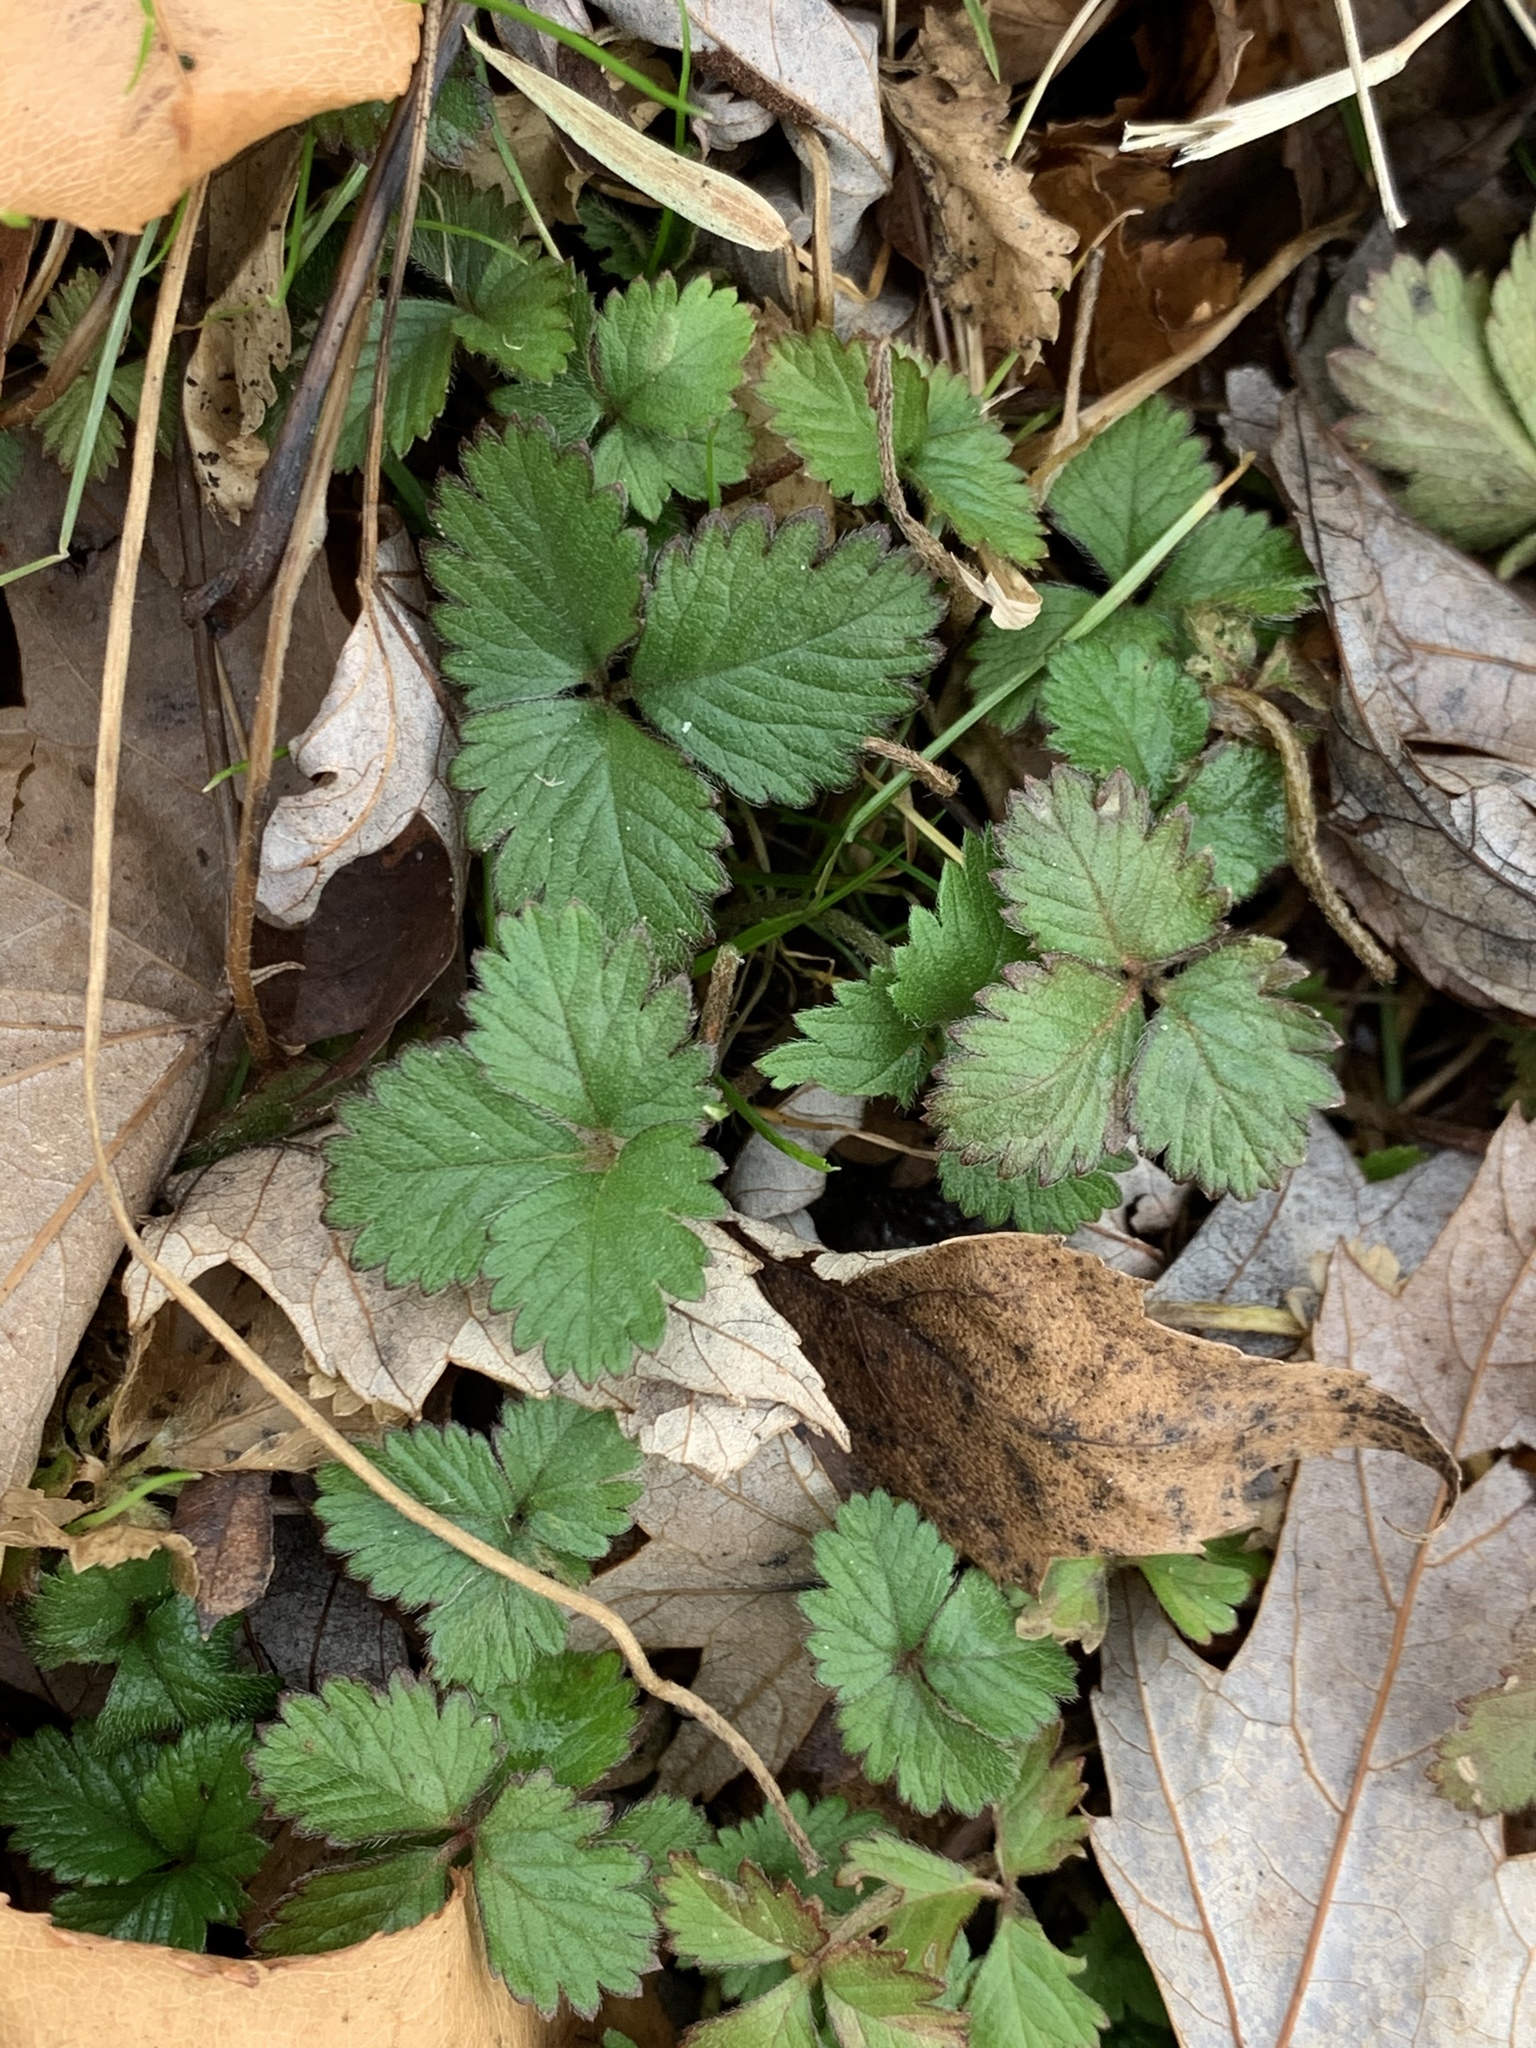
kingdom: Plantae
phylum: Tracheophyta
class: Magnoliopsida
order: Rosales
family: Rosaceae
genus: Potentilla
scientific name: Potentilla indica
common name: Yellow-flowered strawberry
